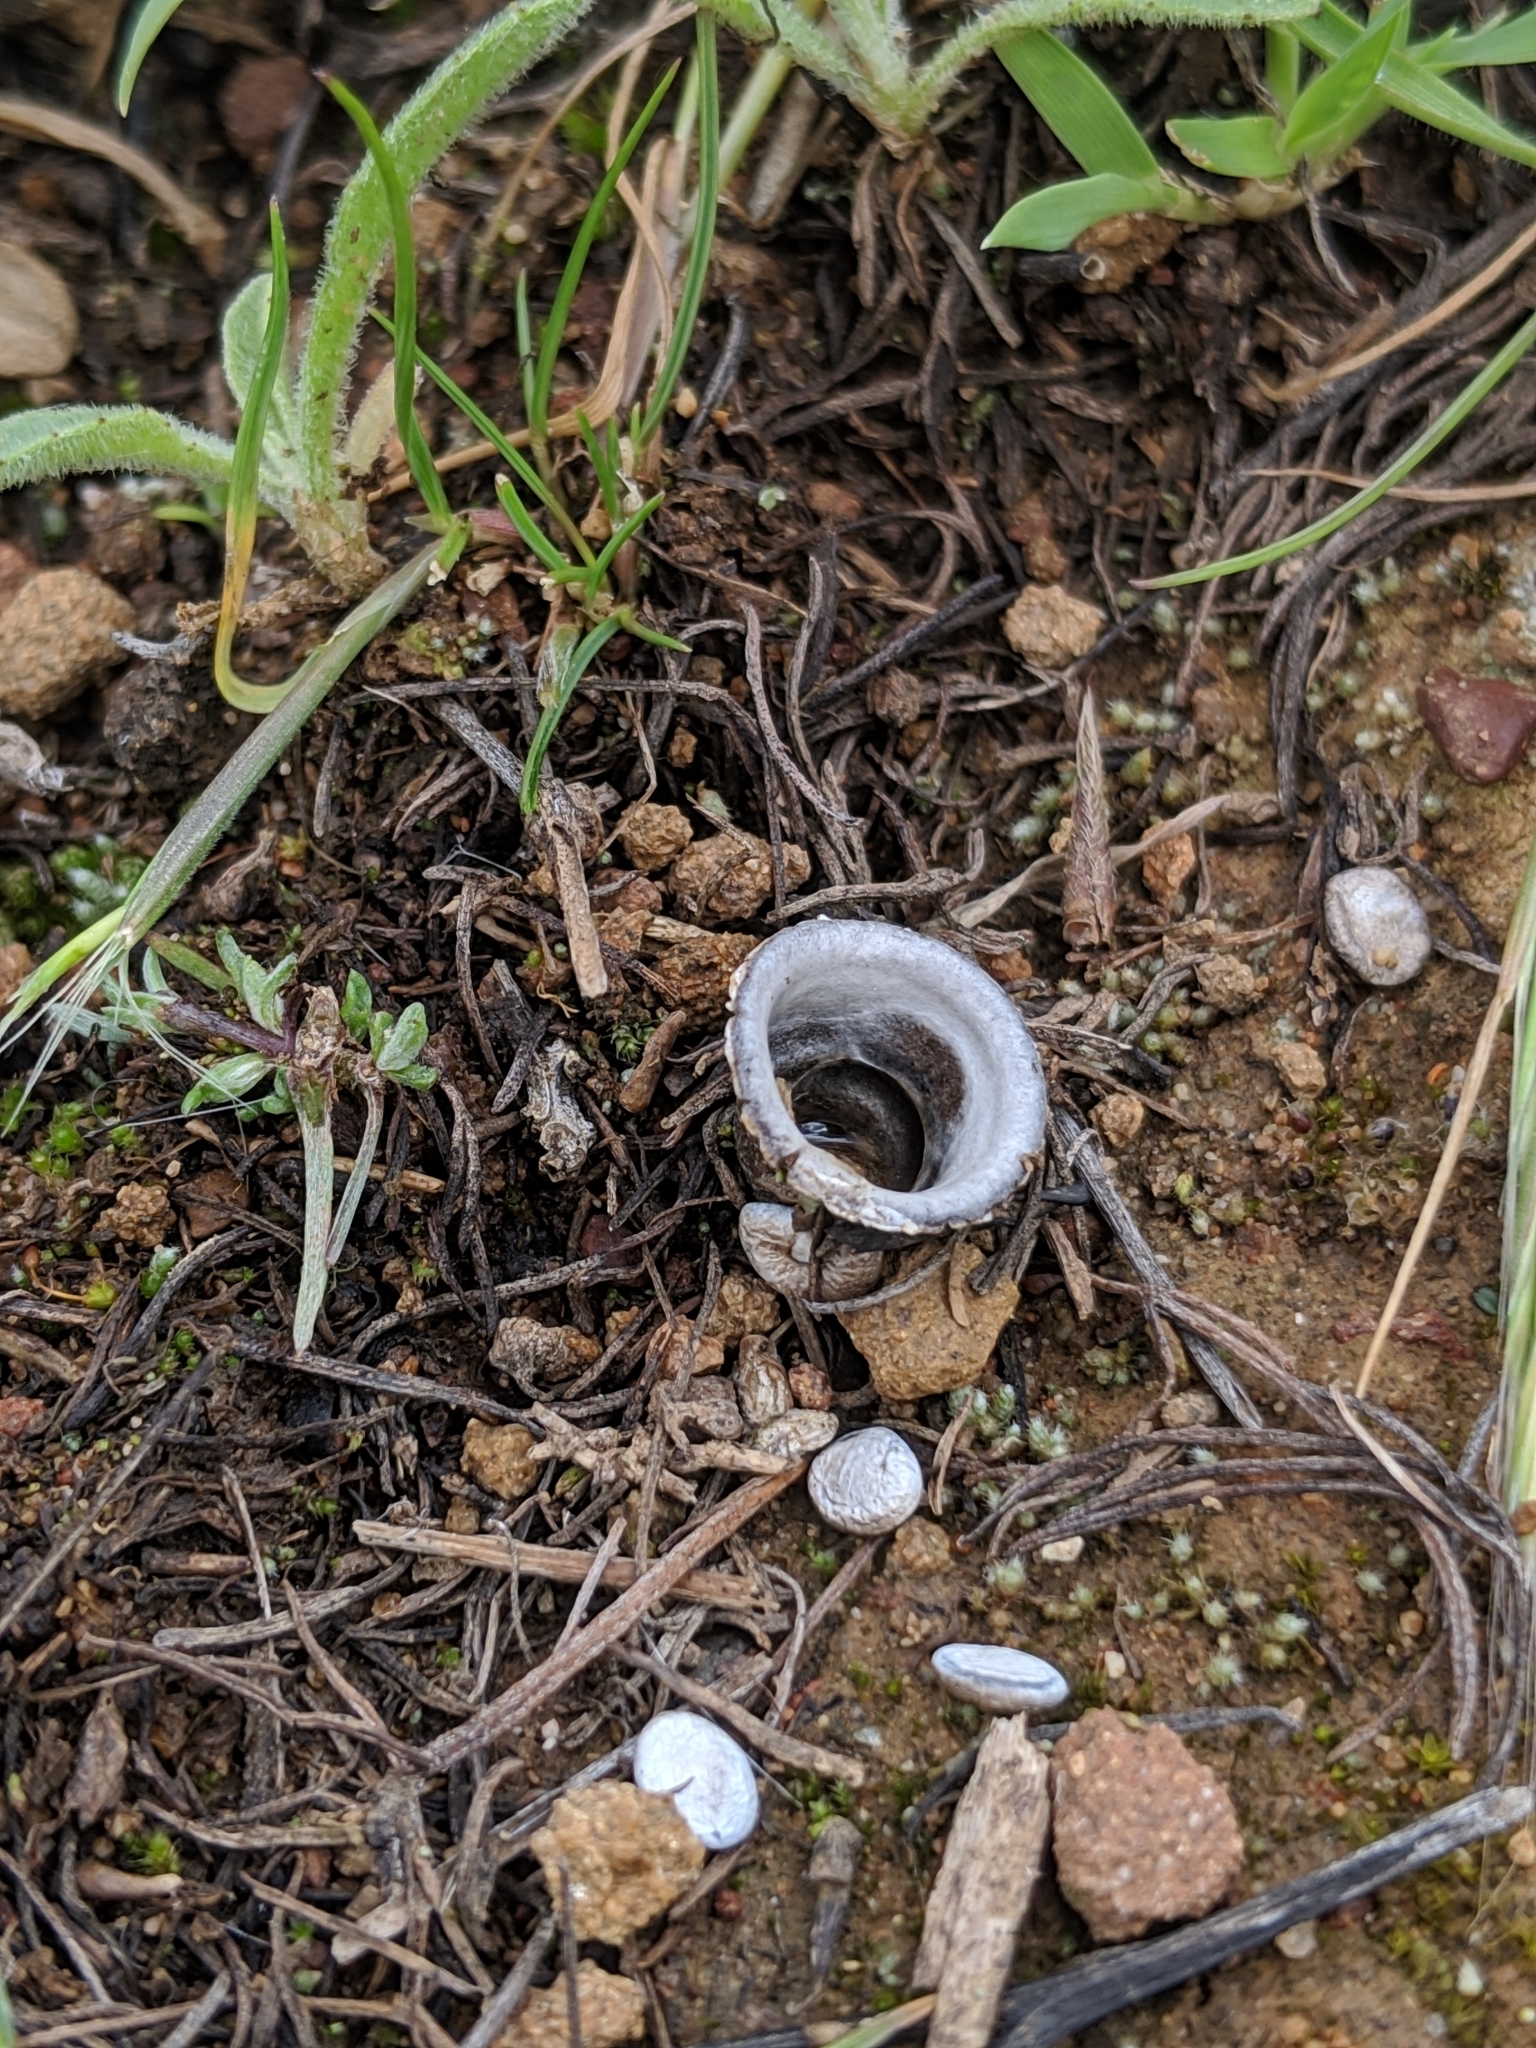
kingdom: Fungi
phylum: Basidiomycota
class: Agaricomycetes
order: Agaricales
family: Agaricaceae
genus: Cyathus
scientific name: Cyathus olla
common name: Field bird's nest
